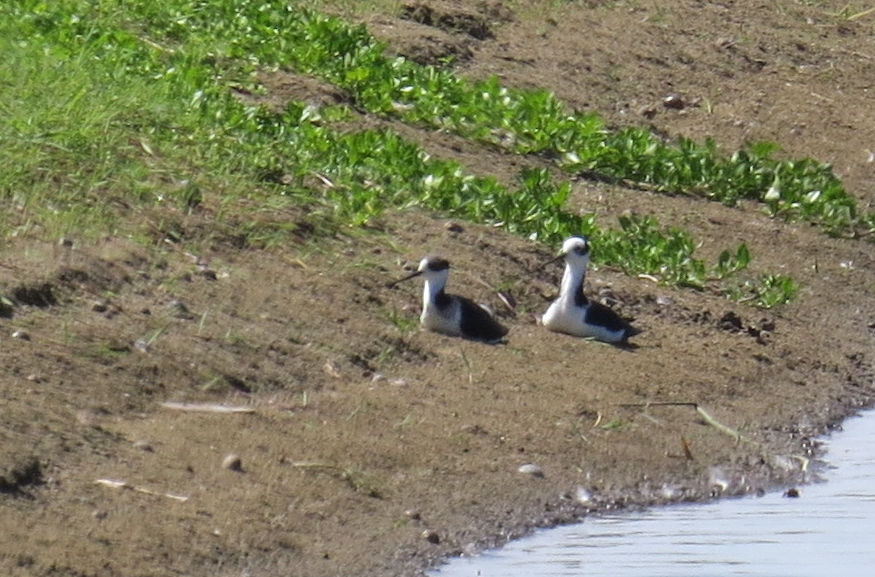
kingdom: Animalia
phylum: Chordata
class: Aves
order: Charadriiformes
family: Recurvirostridae
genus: Himantopus
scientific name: Himantopus mexicanus
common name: Black-necked stilt
